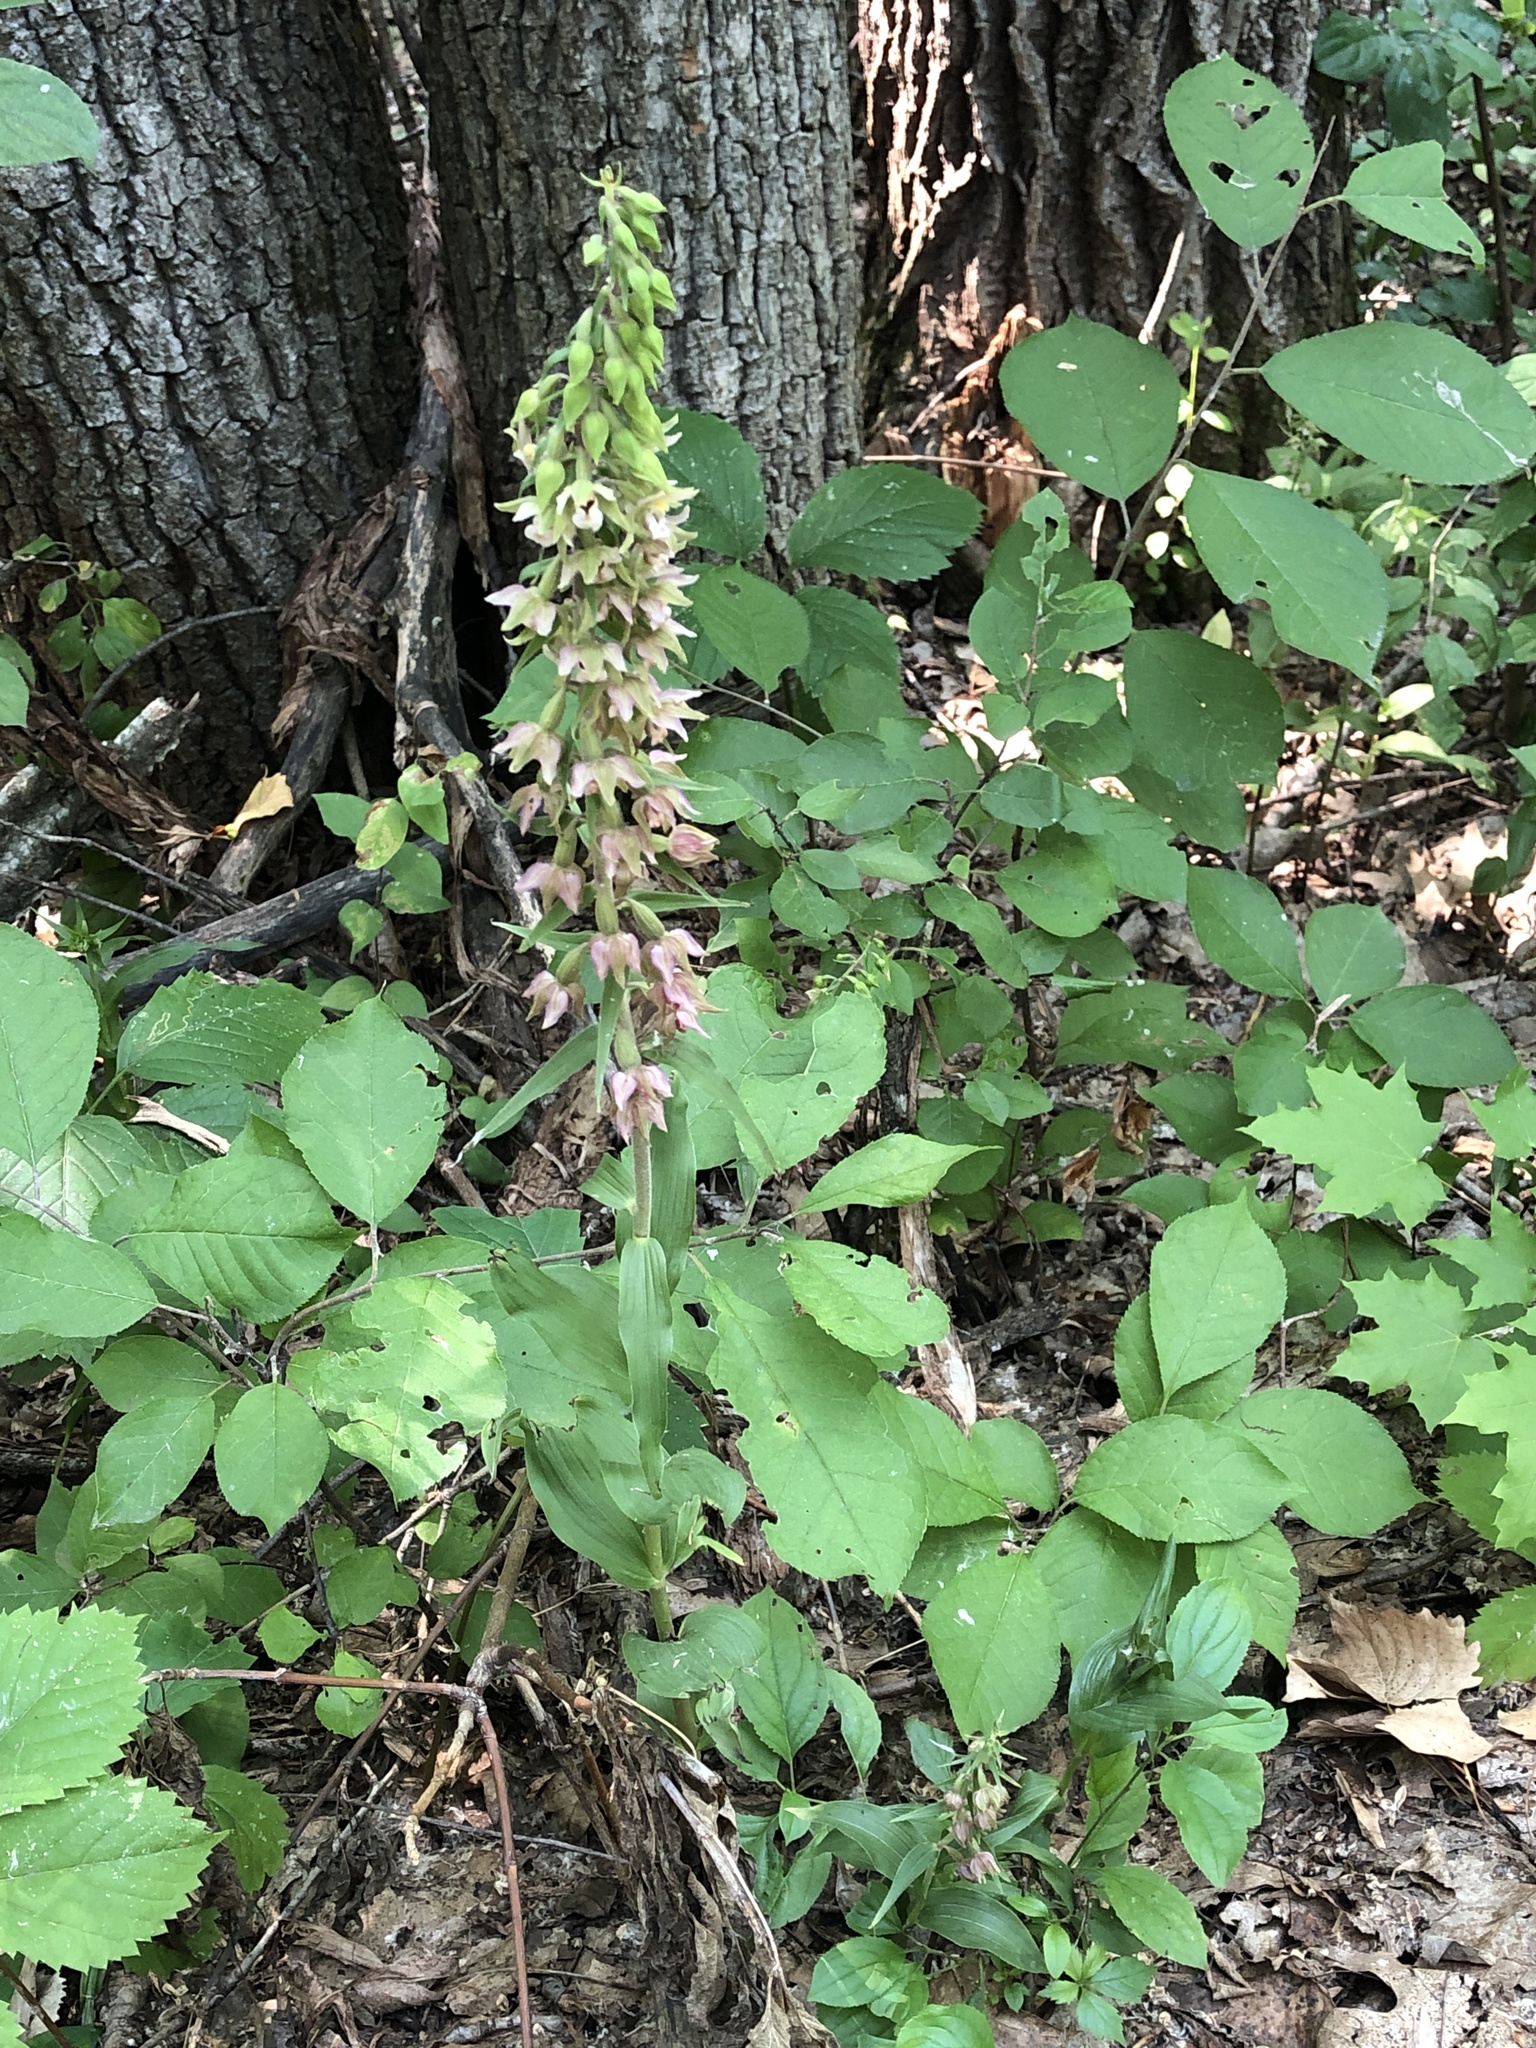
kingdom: Plantae
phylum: Tracheophyta
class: Liliopsida
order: Asparagales
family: Orchidaceae
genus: Epipactis
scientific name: Epipactis helleborine
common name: Broad-leaved helleborine
